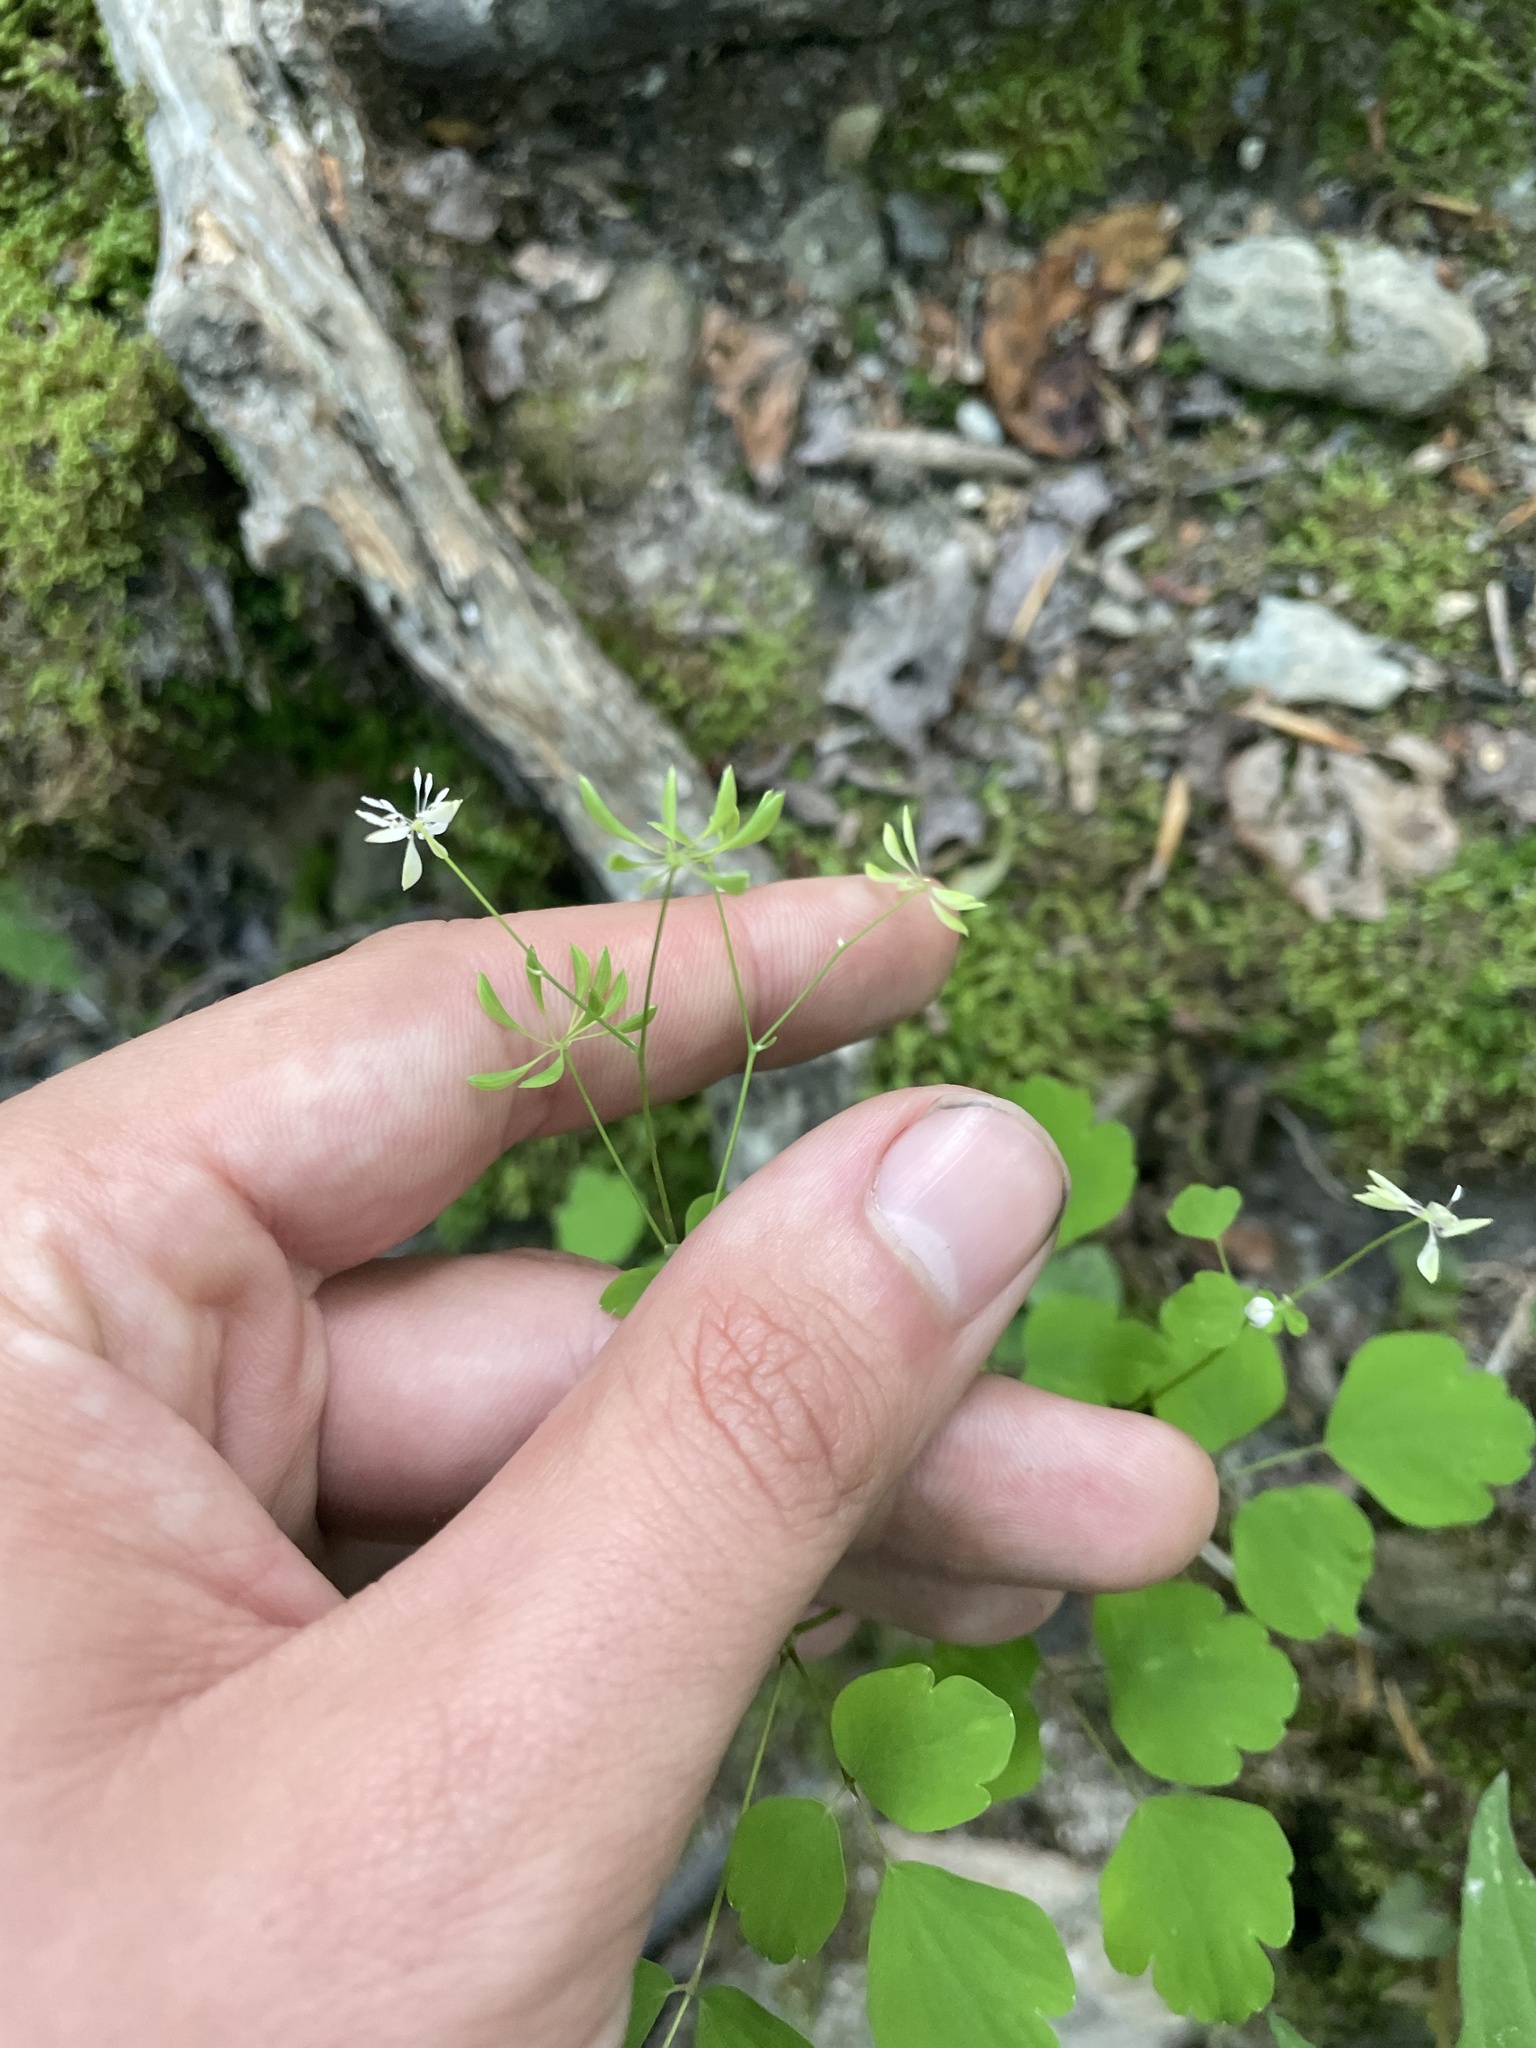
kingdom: Plantae
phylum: Tracheophyta
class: Magnoliopsida
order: Ranunculales
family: Ranunculaceae
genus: Thalictrum
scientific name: Thalictrum clavatum
